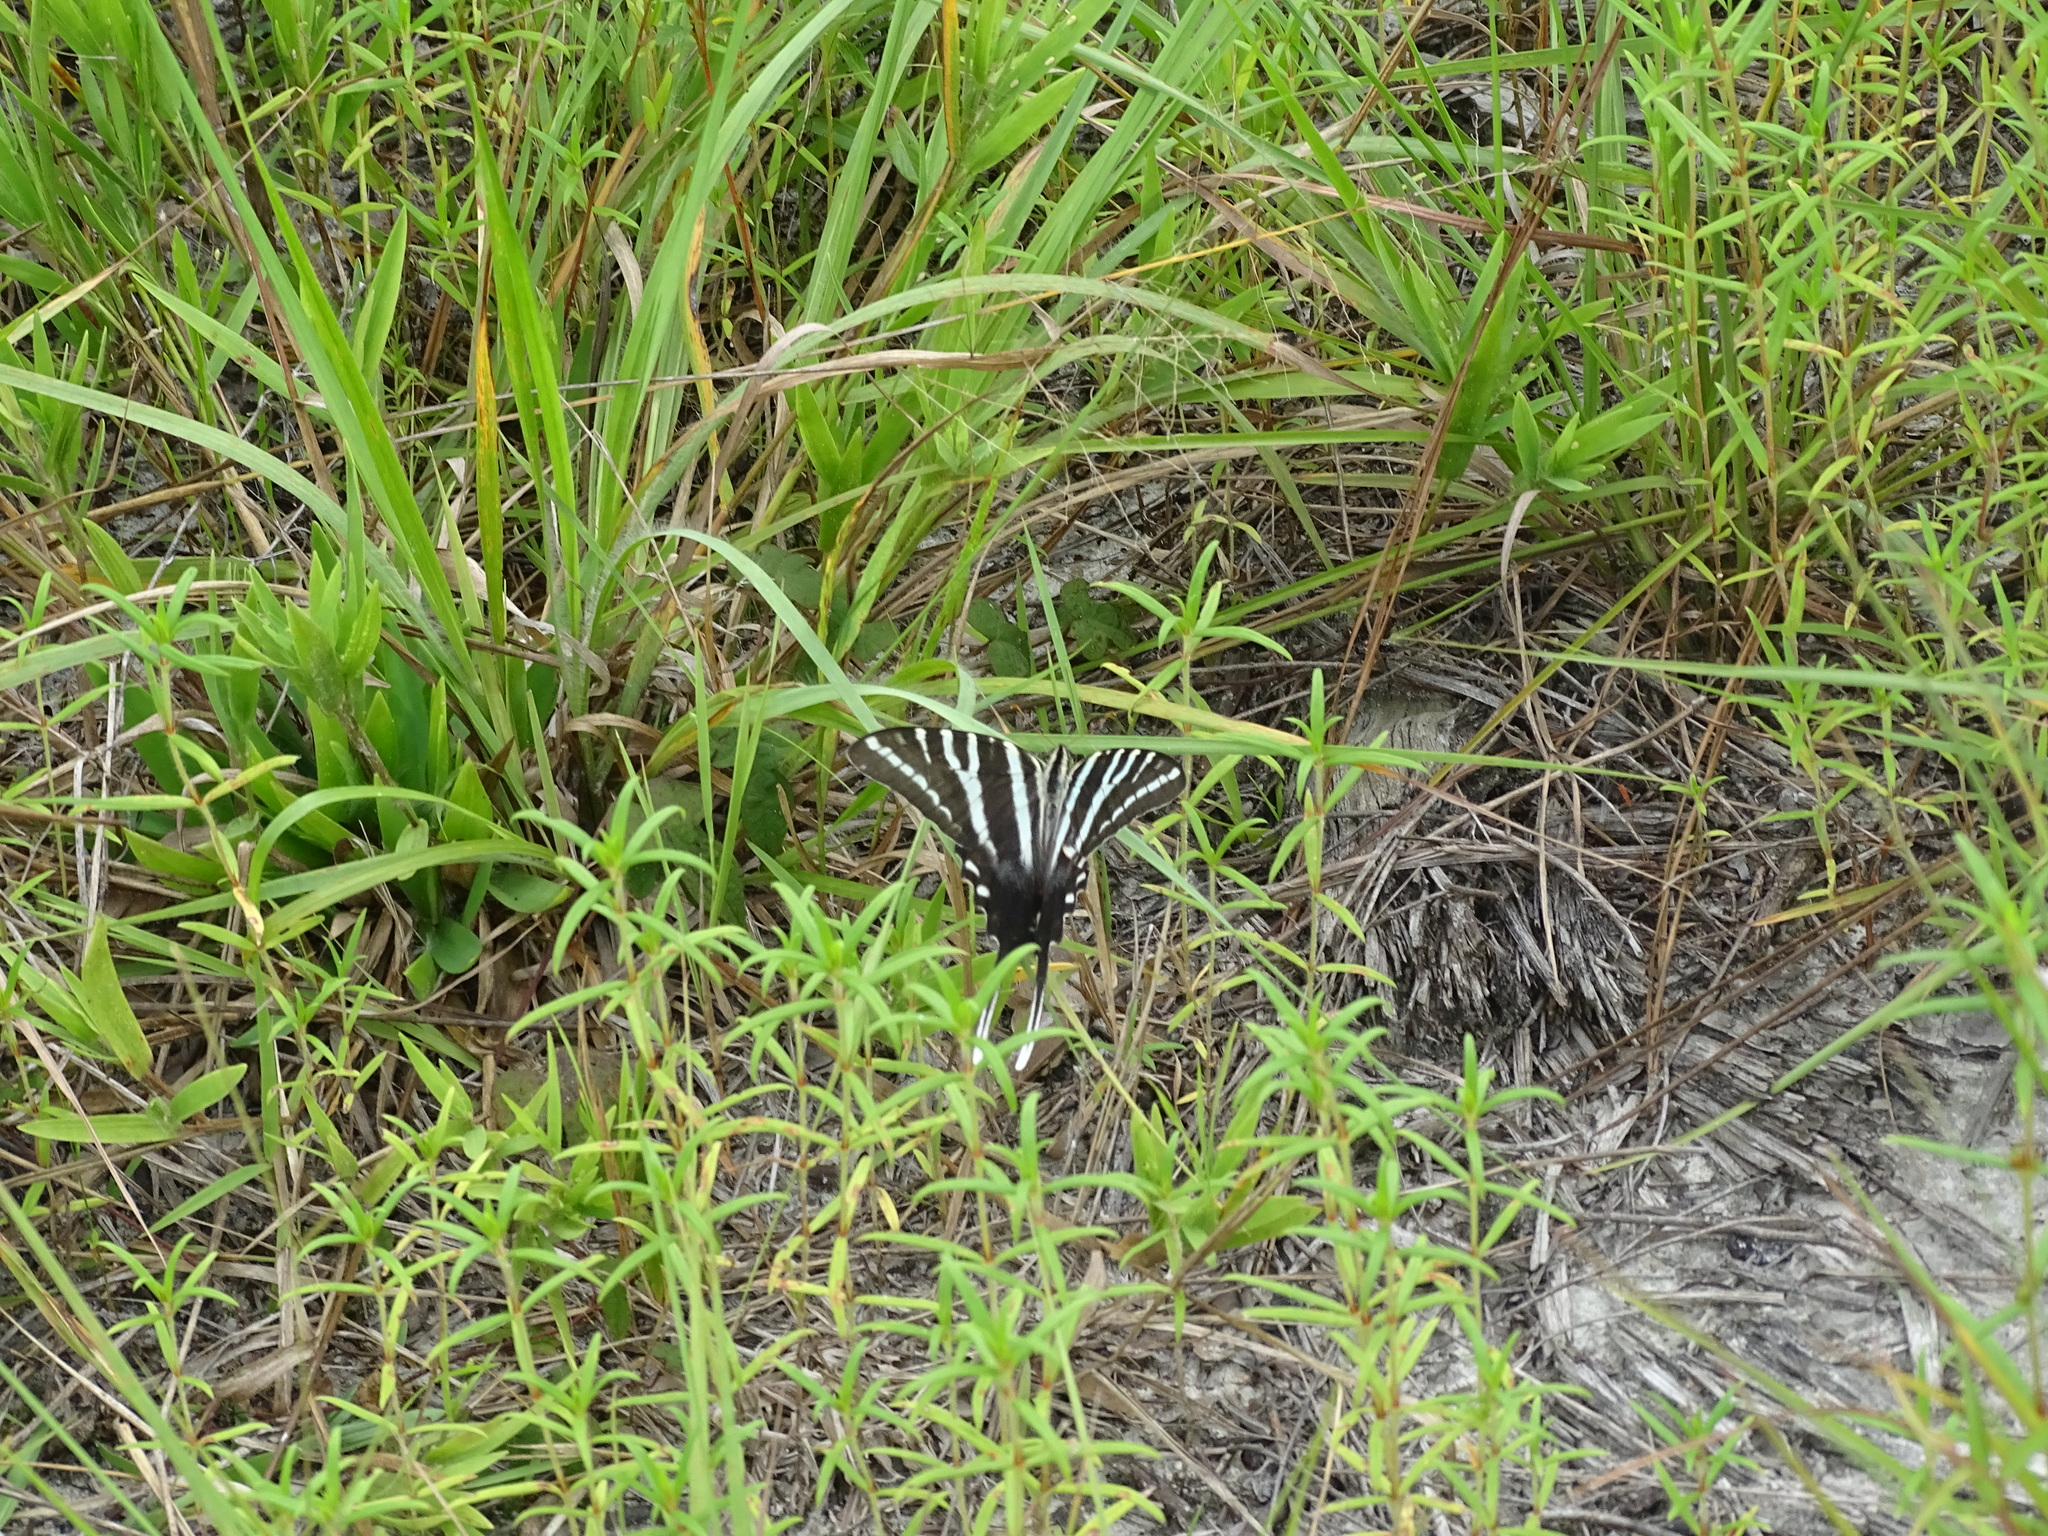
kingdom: Animalia
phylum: Arthropoda
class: Insecta
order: Lepidoptera
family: Papilionidae
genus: Protographium
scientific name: Protographium marcellus
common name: Zebra swallowtail
